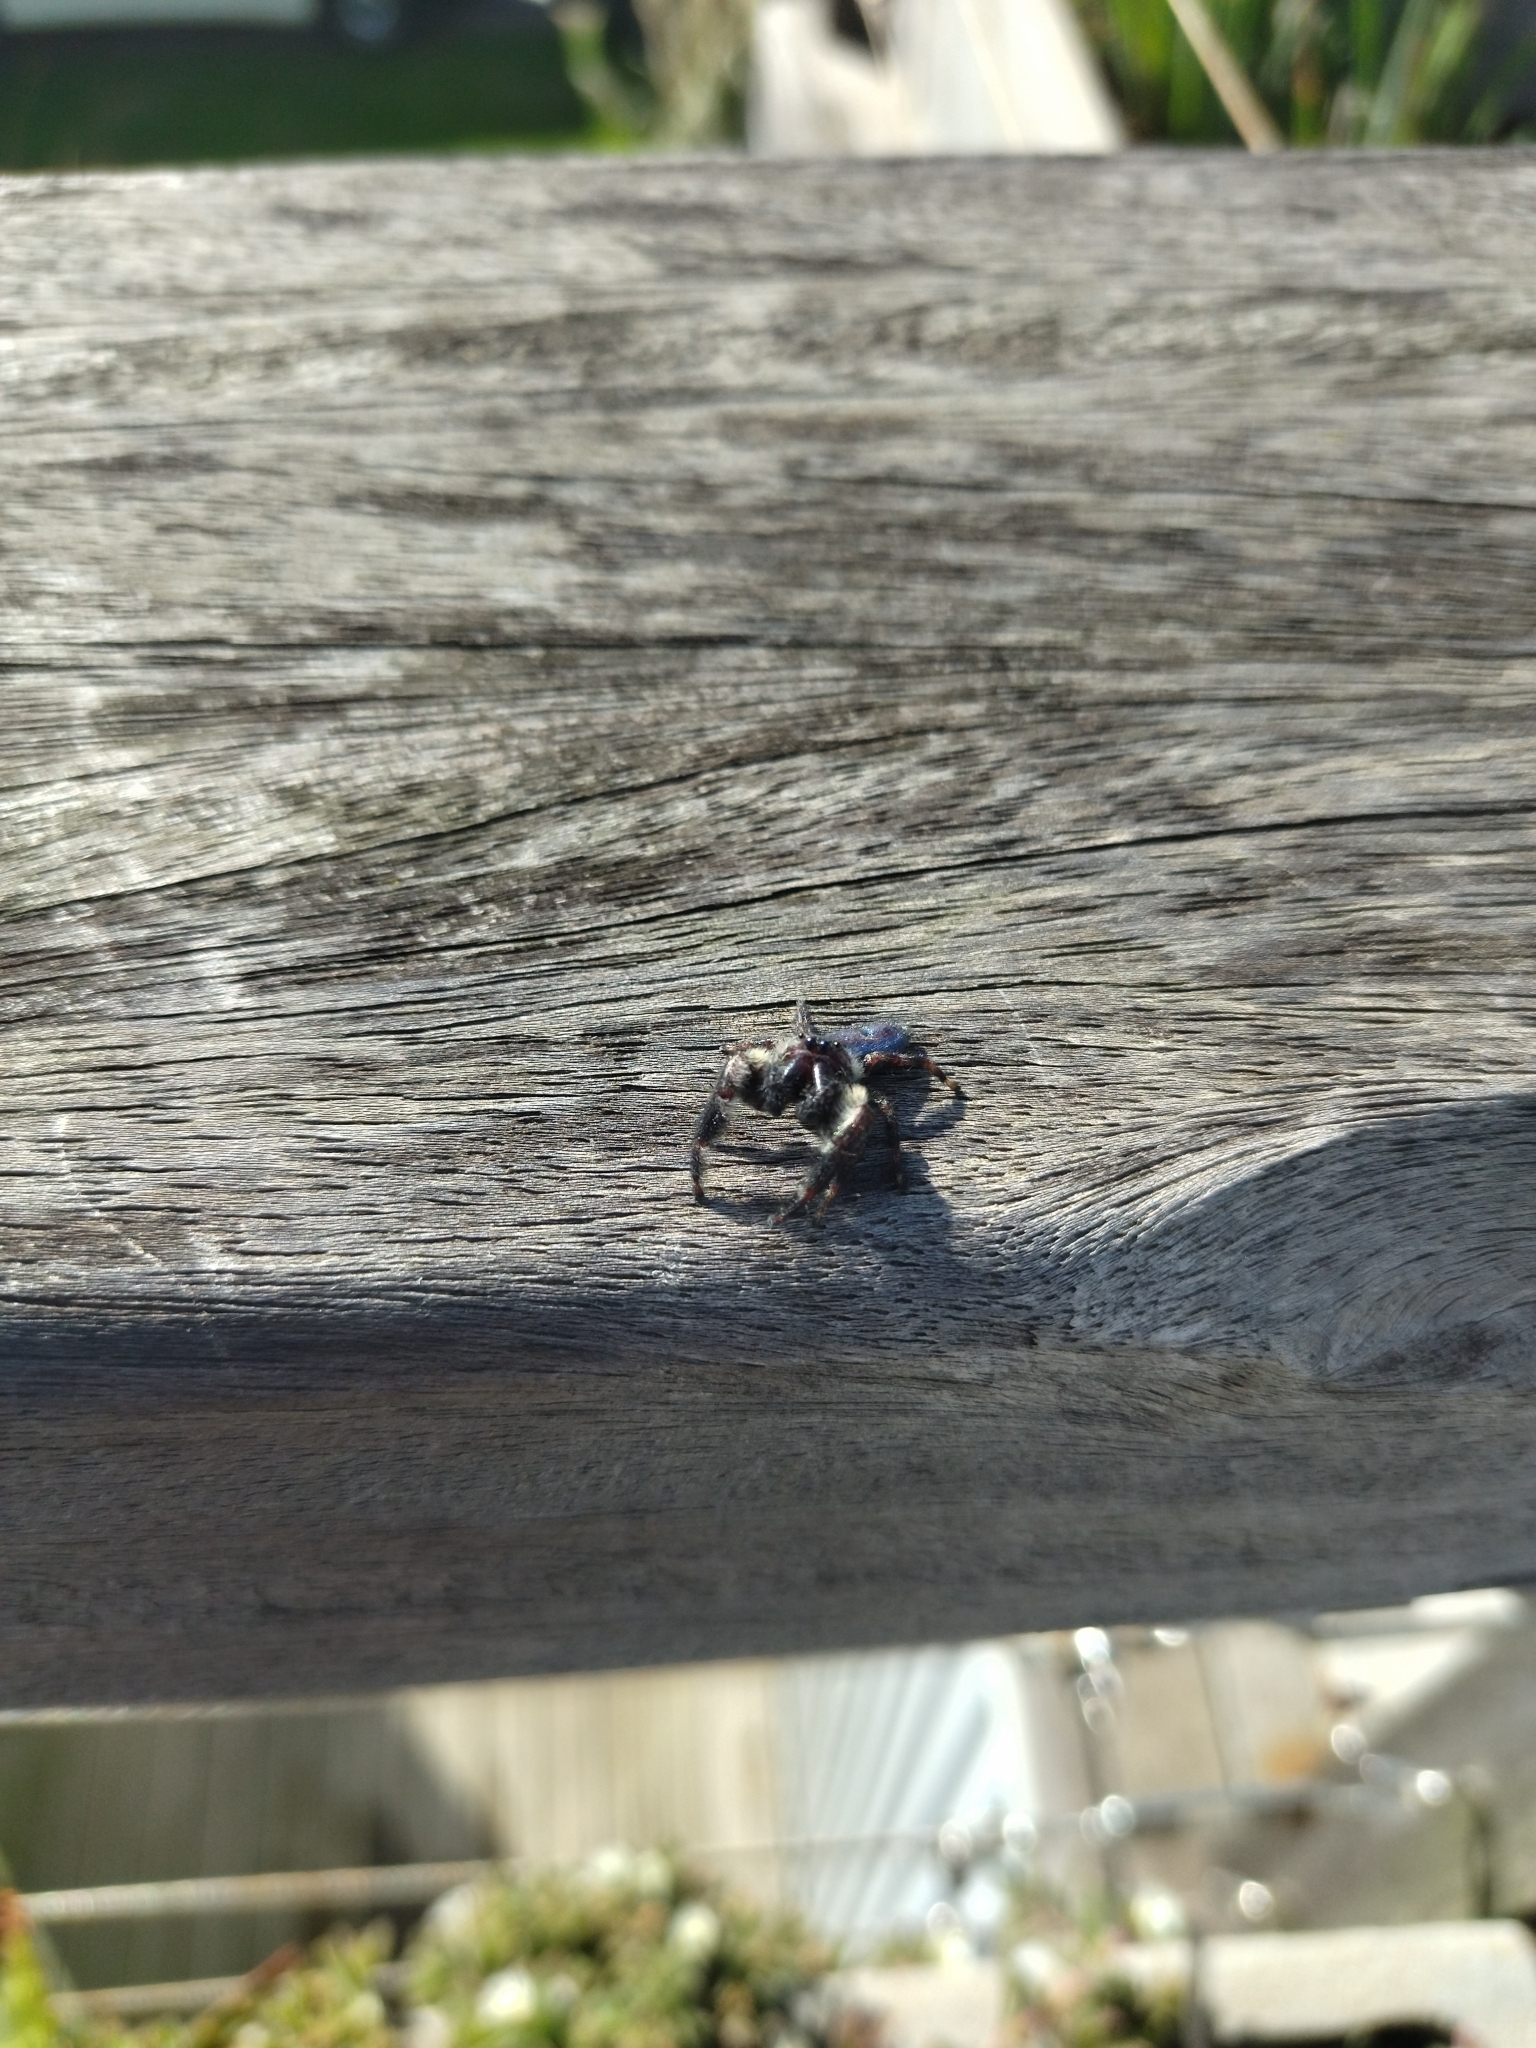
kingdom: Animalia
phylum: Arthropoda
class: Arachnida
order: Araneae
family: Salticidae
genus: Mburuvicha
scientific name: Mburuvicha galianoae
